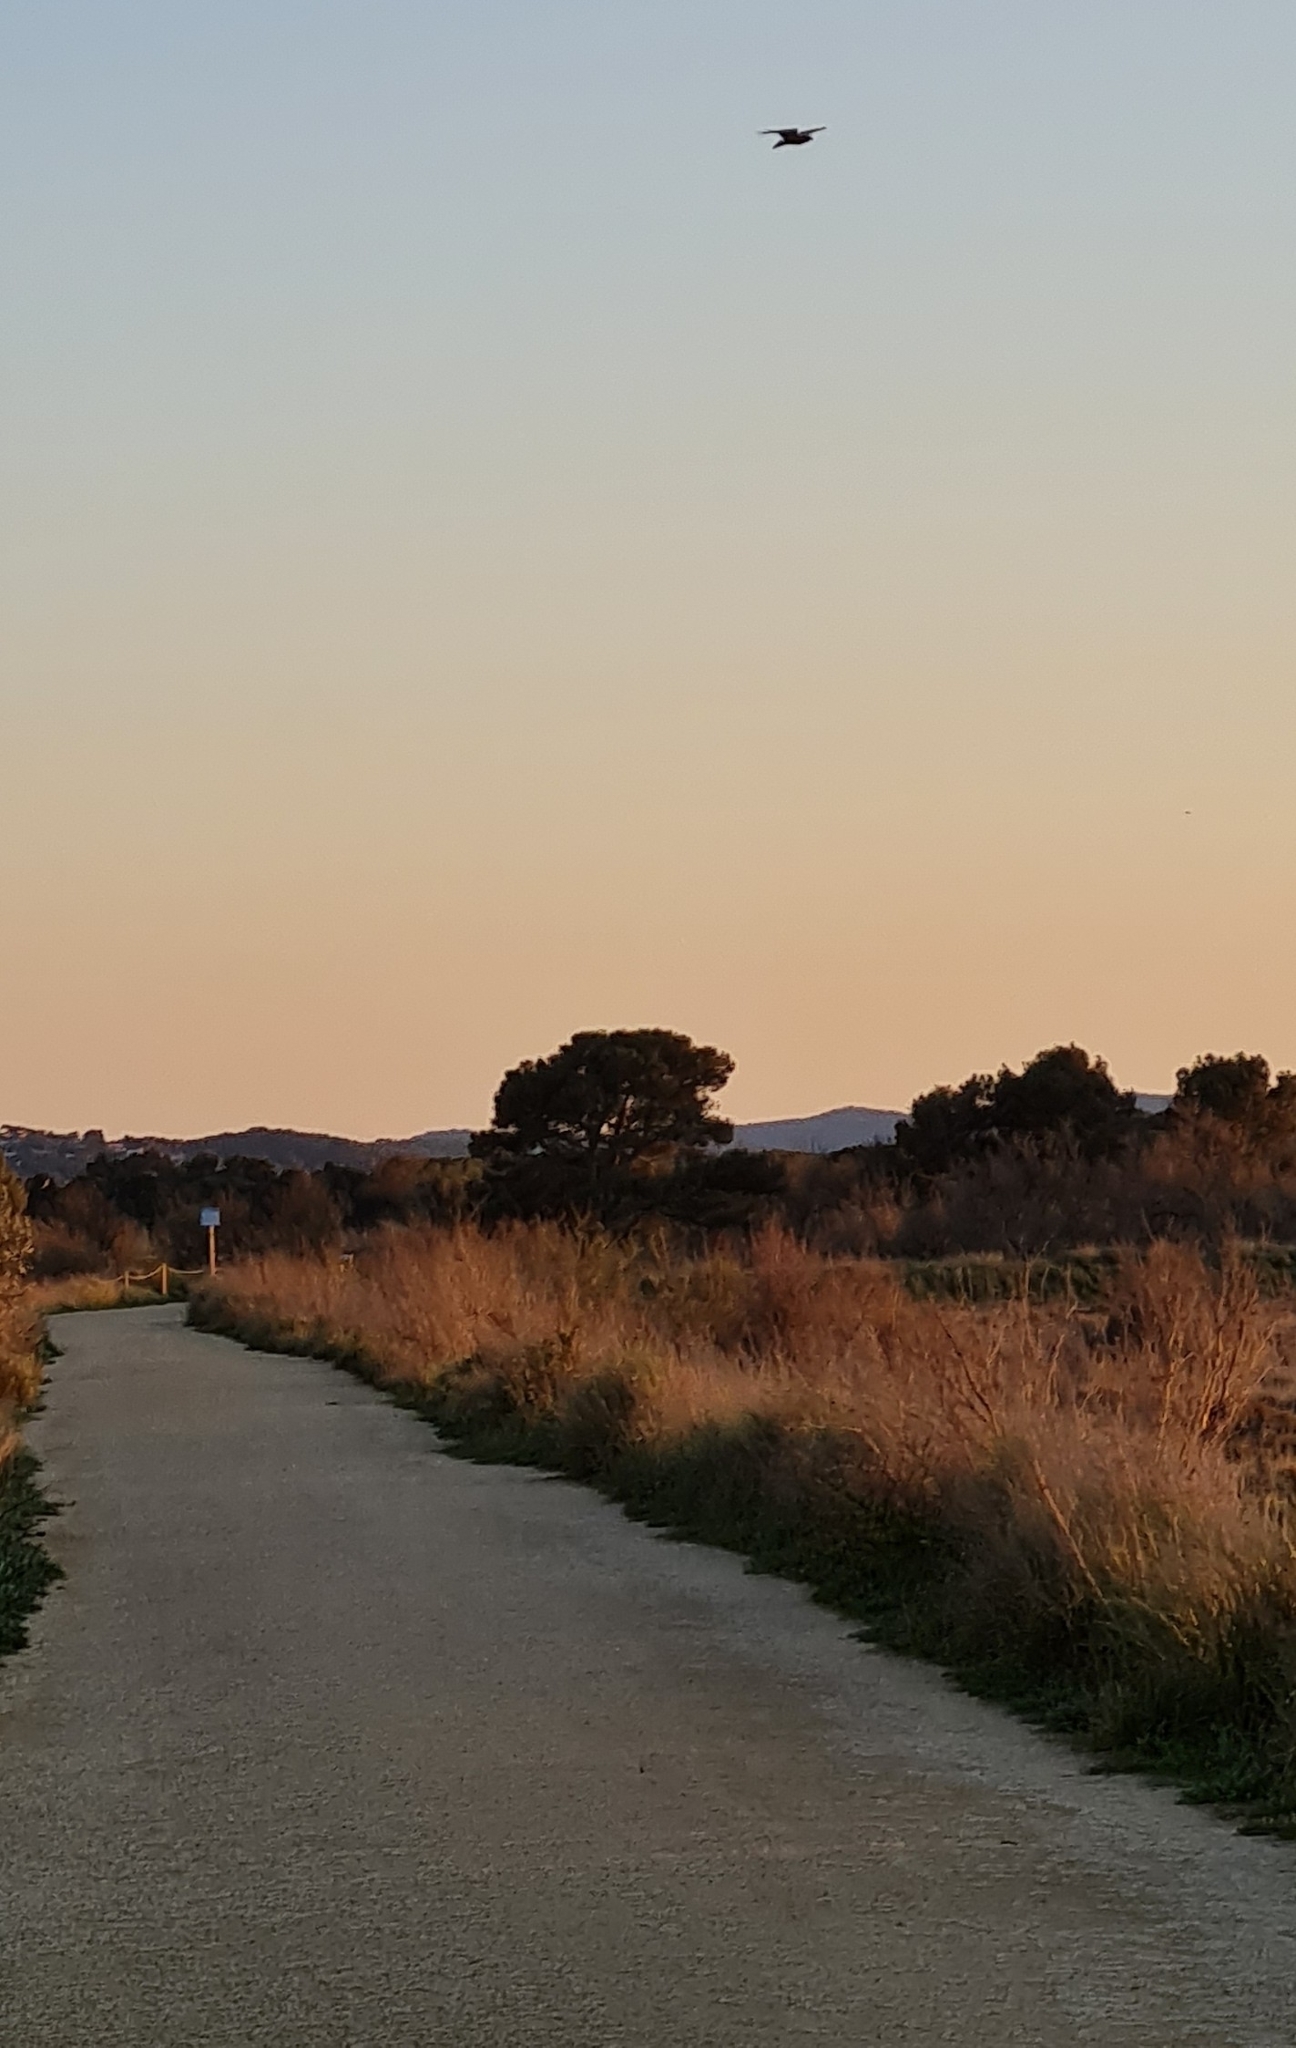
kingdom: Animalia
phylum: Chordata
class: Aves
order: Accipitriformes
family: Accipitridae
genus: Buteo
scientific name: Buteo buteo
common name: Common buzzard
